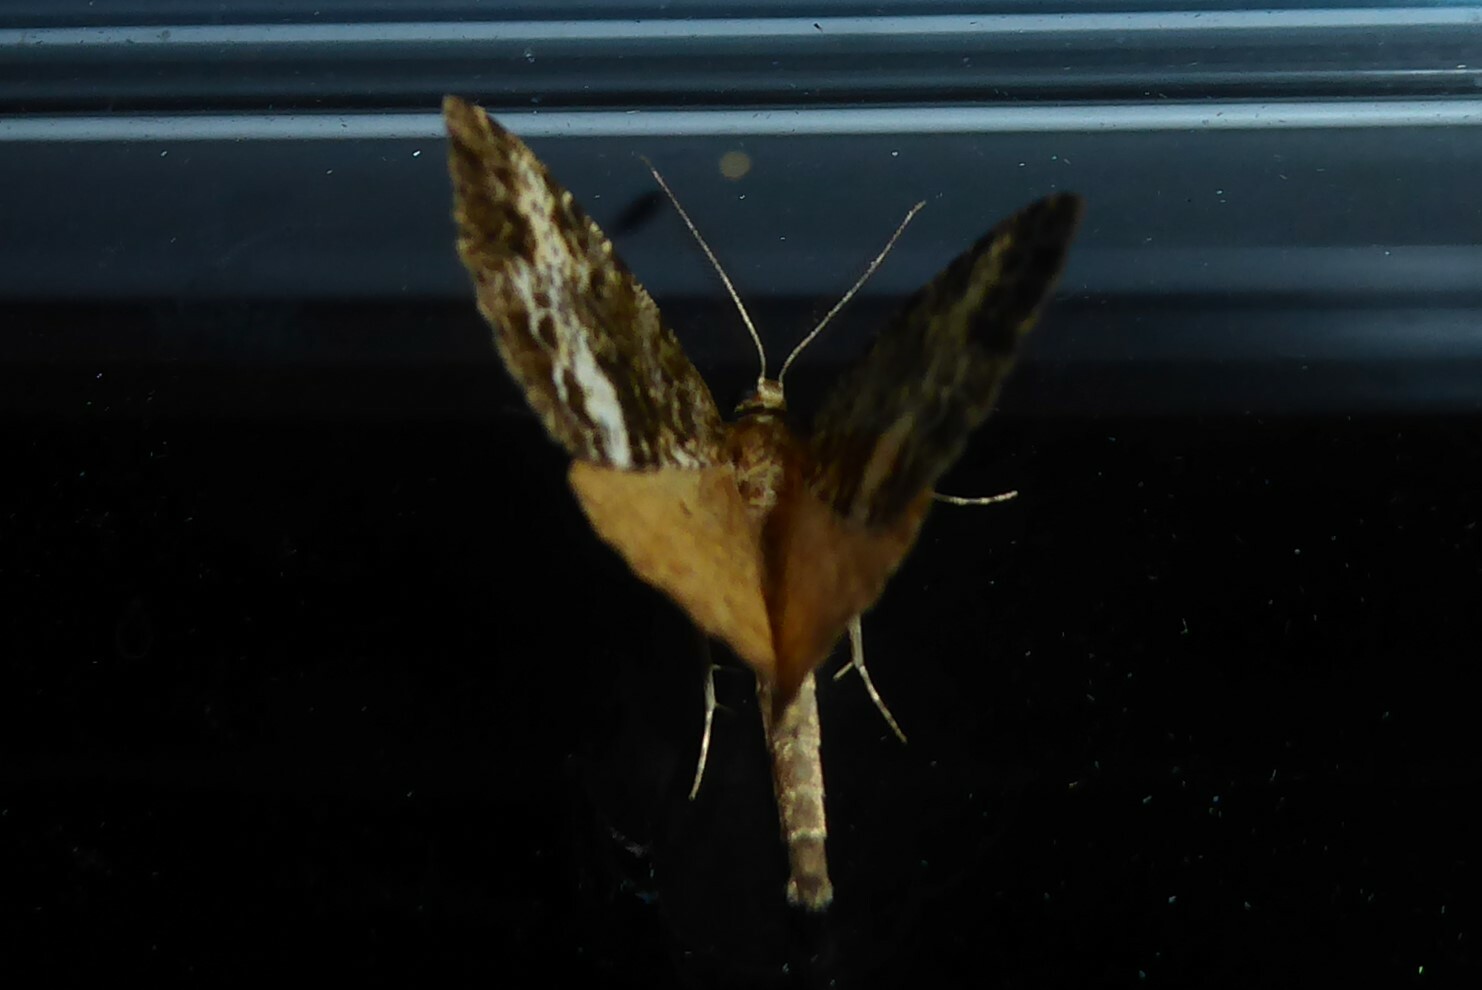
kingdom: Animalia
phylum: Arthropoda
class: Insecta
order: Lepidoptera
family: Geometridae
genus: Pseudocoremia
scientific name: Pseudocoremia lactiflua
